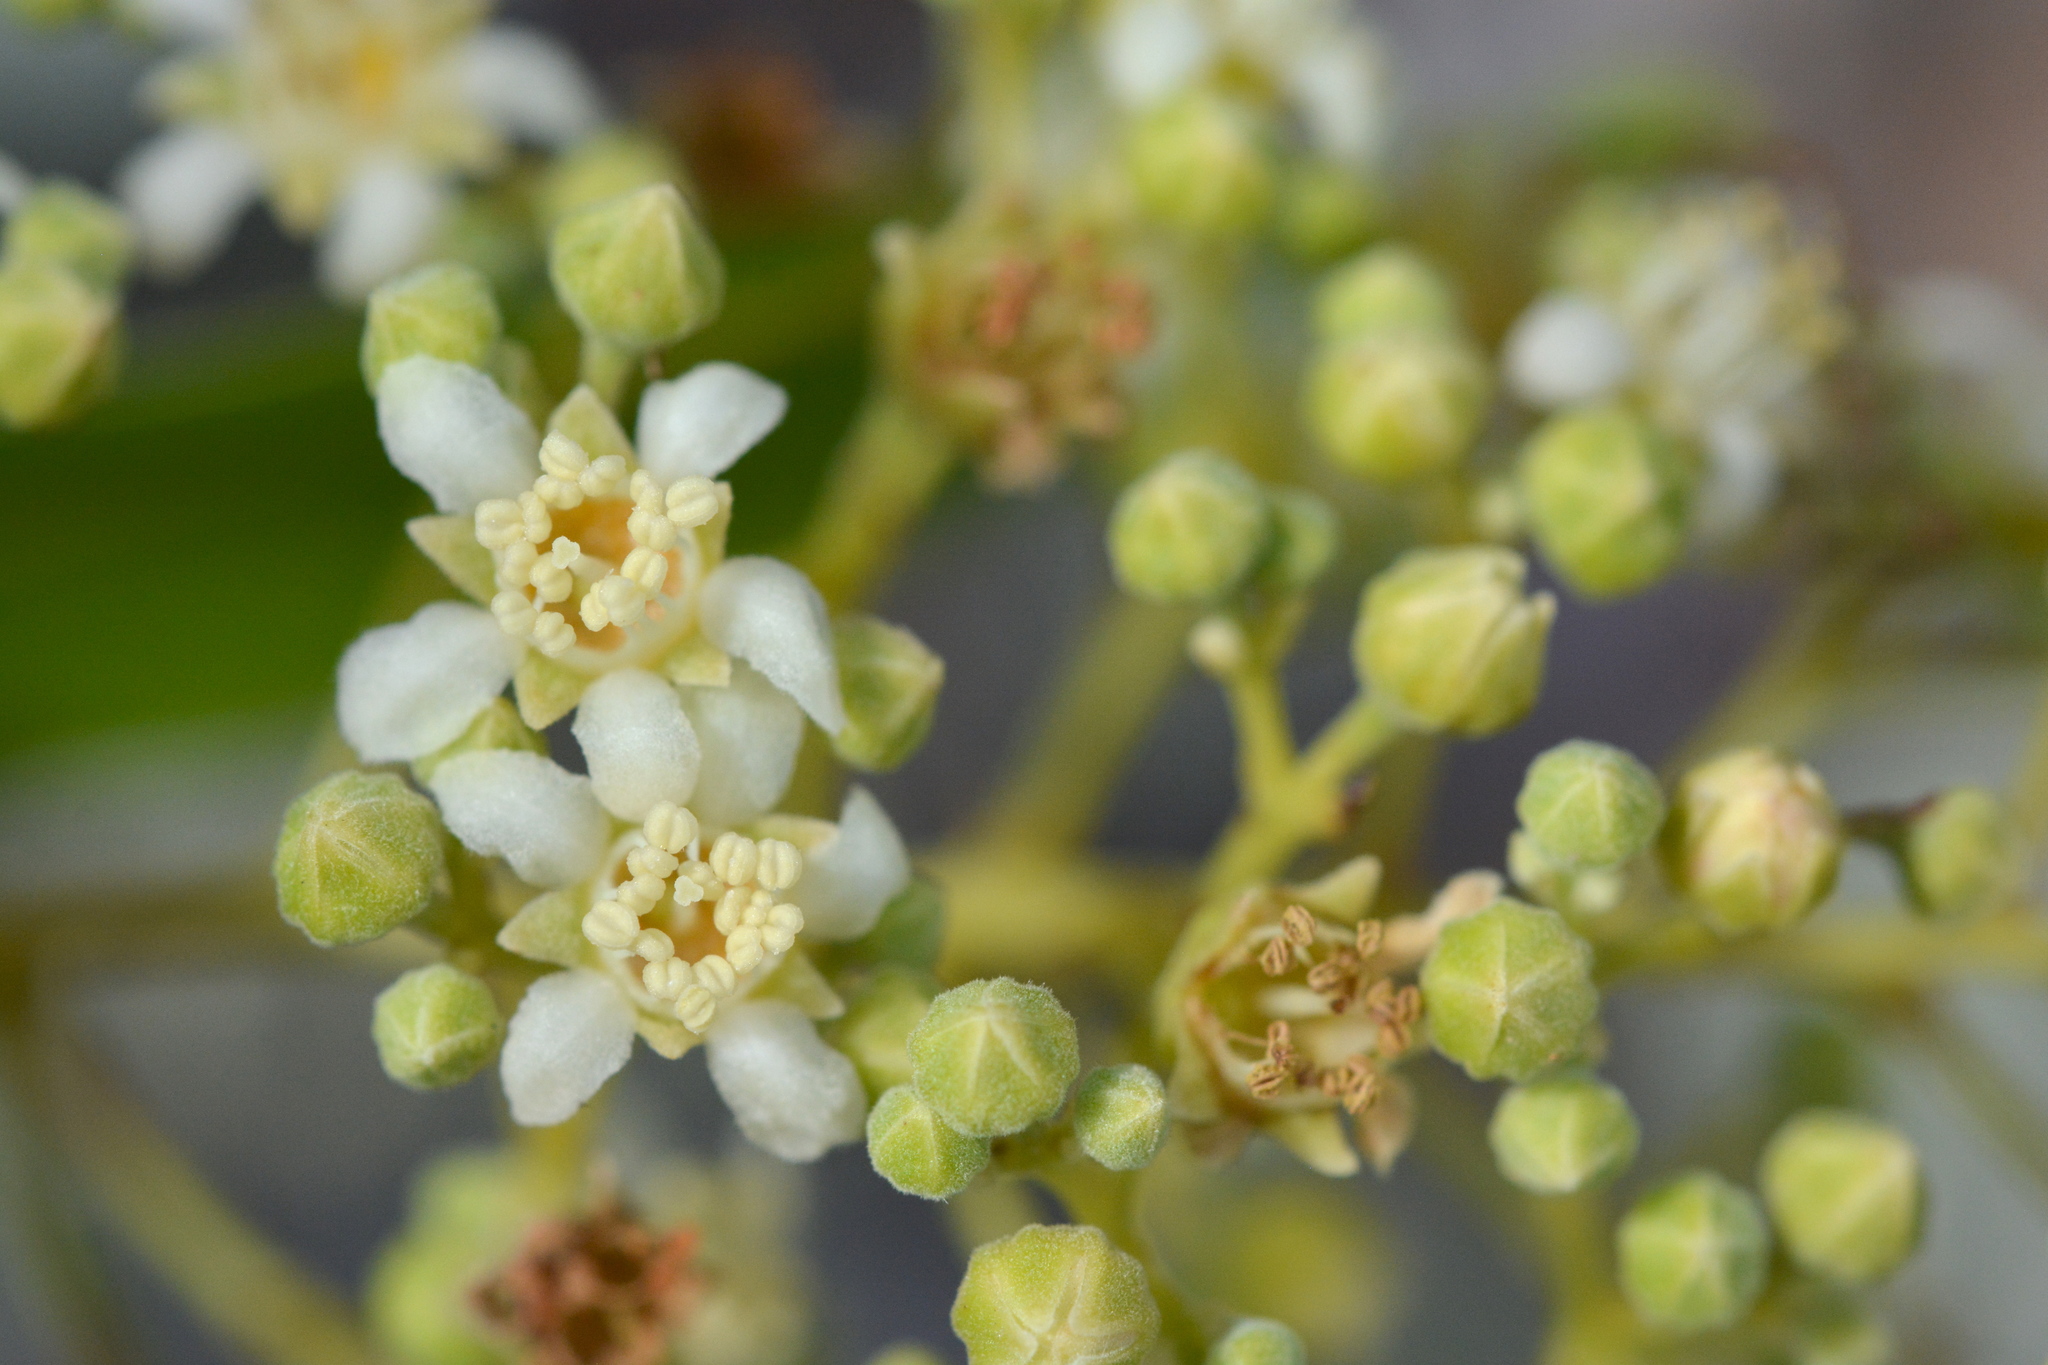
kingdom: Plantae
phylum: Tracheophyta
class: Magnoliopsida
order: Malpighiales
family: Chrysobalanaceae
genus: Geobalanus
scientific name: Geobalanus oblongifolius
